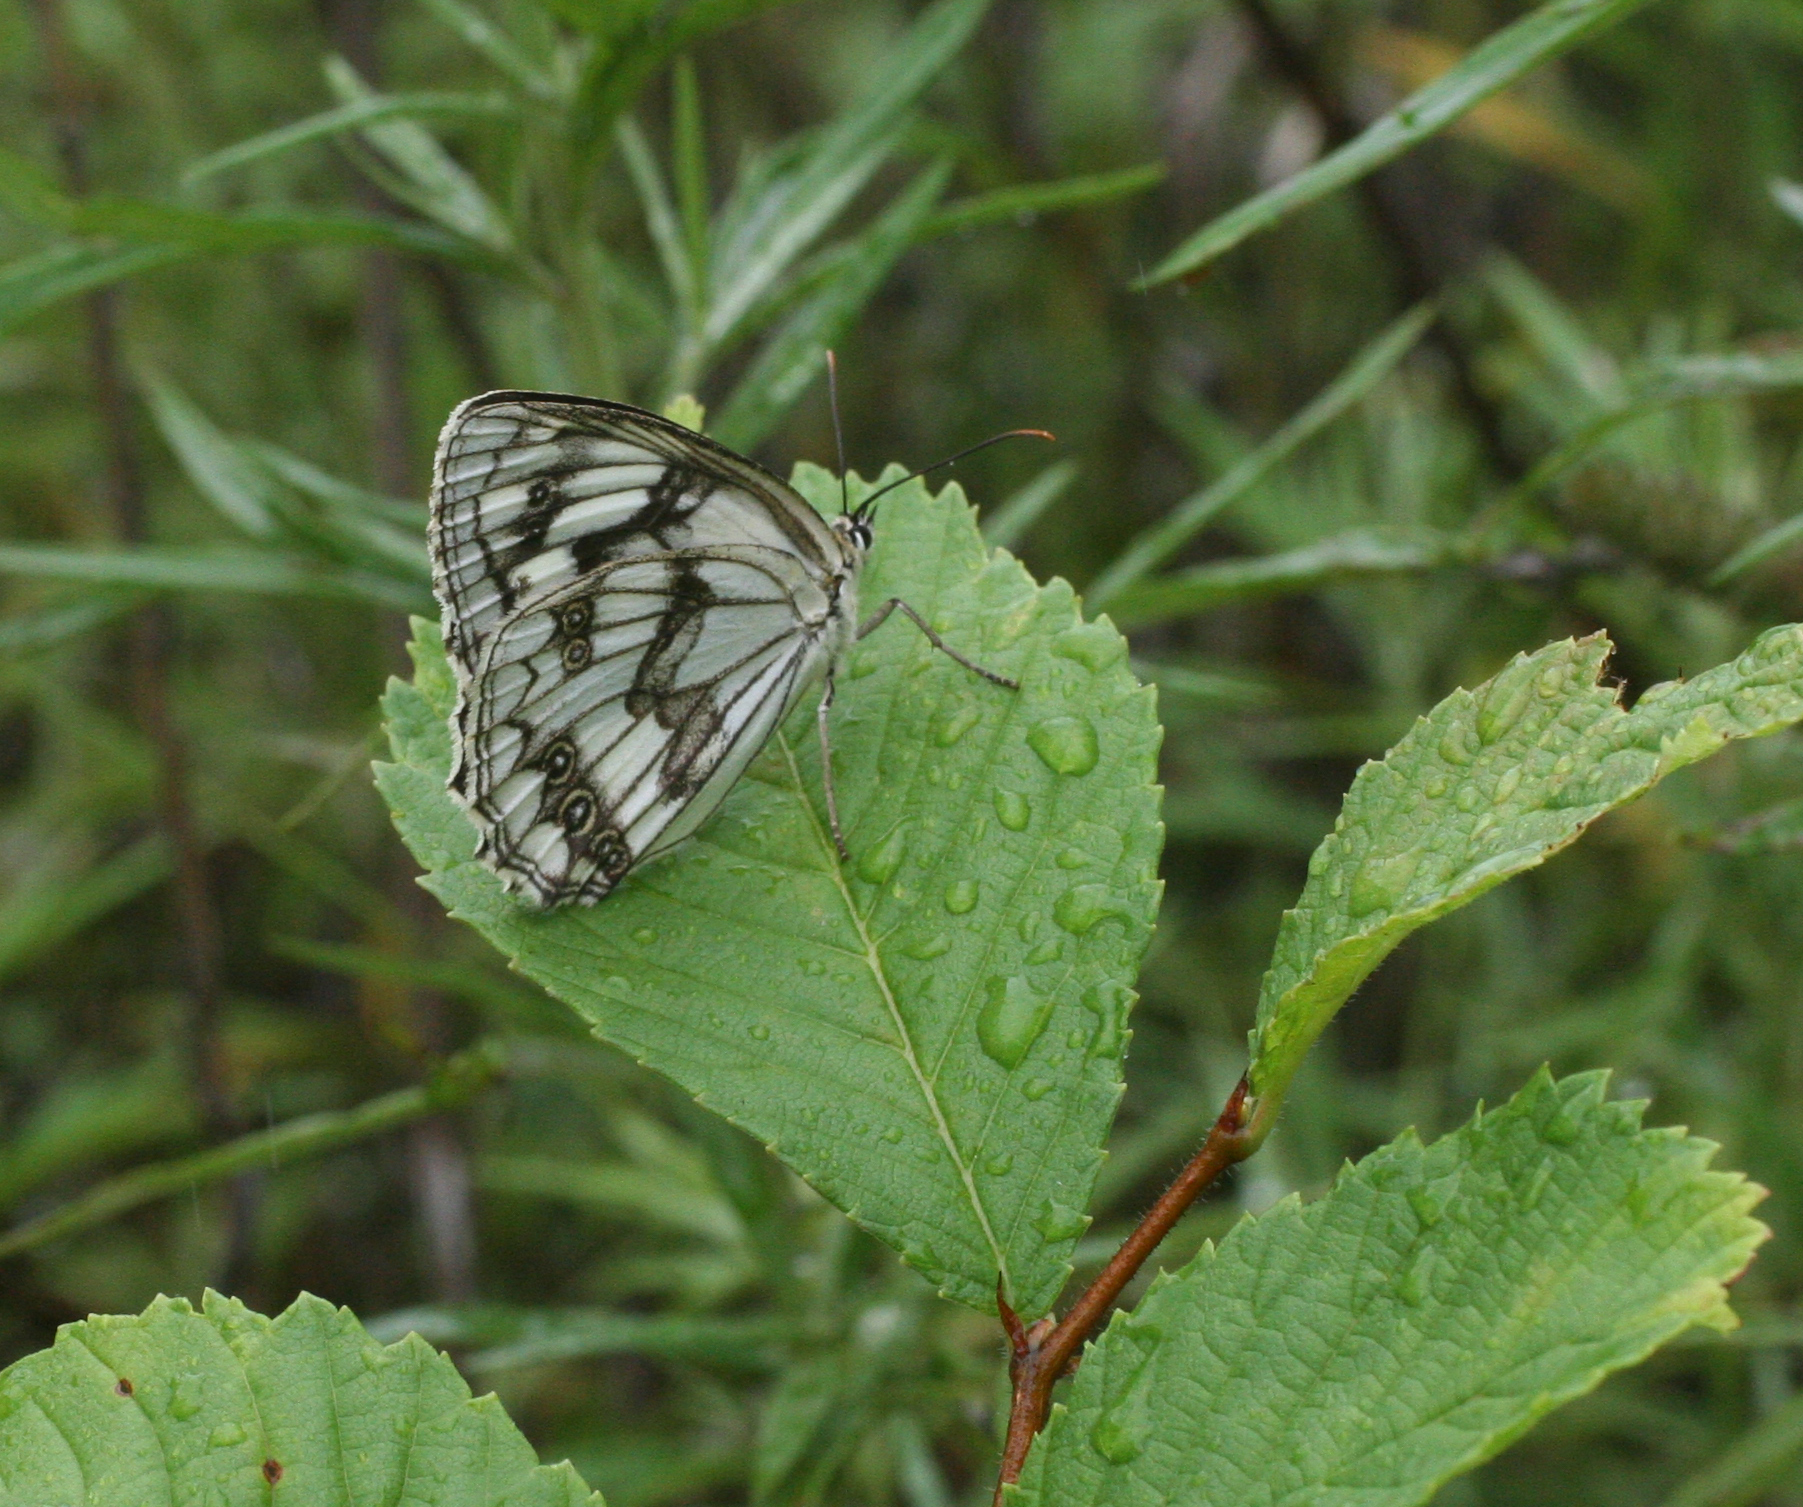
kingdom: Animalia
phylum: Arthropoda
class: Insecta
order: Lepidoptera
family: Nymphalidae
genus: Melanargia
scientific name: Melanargia halimede
